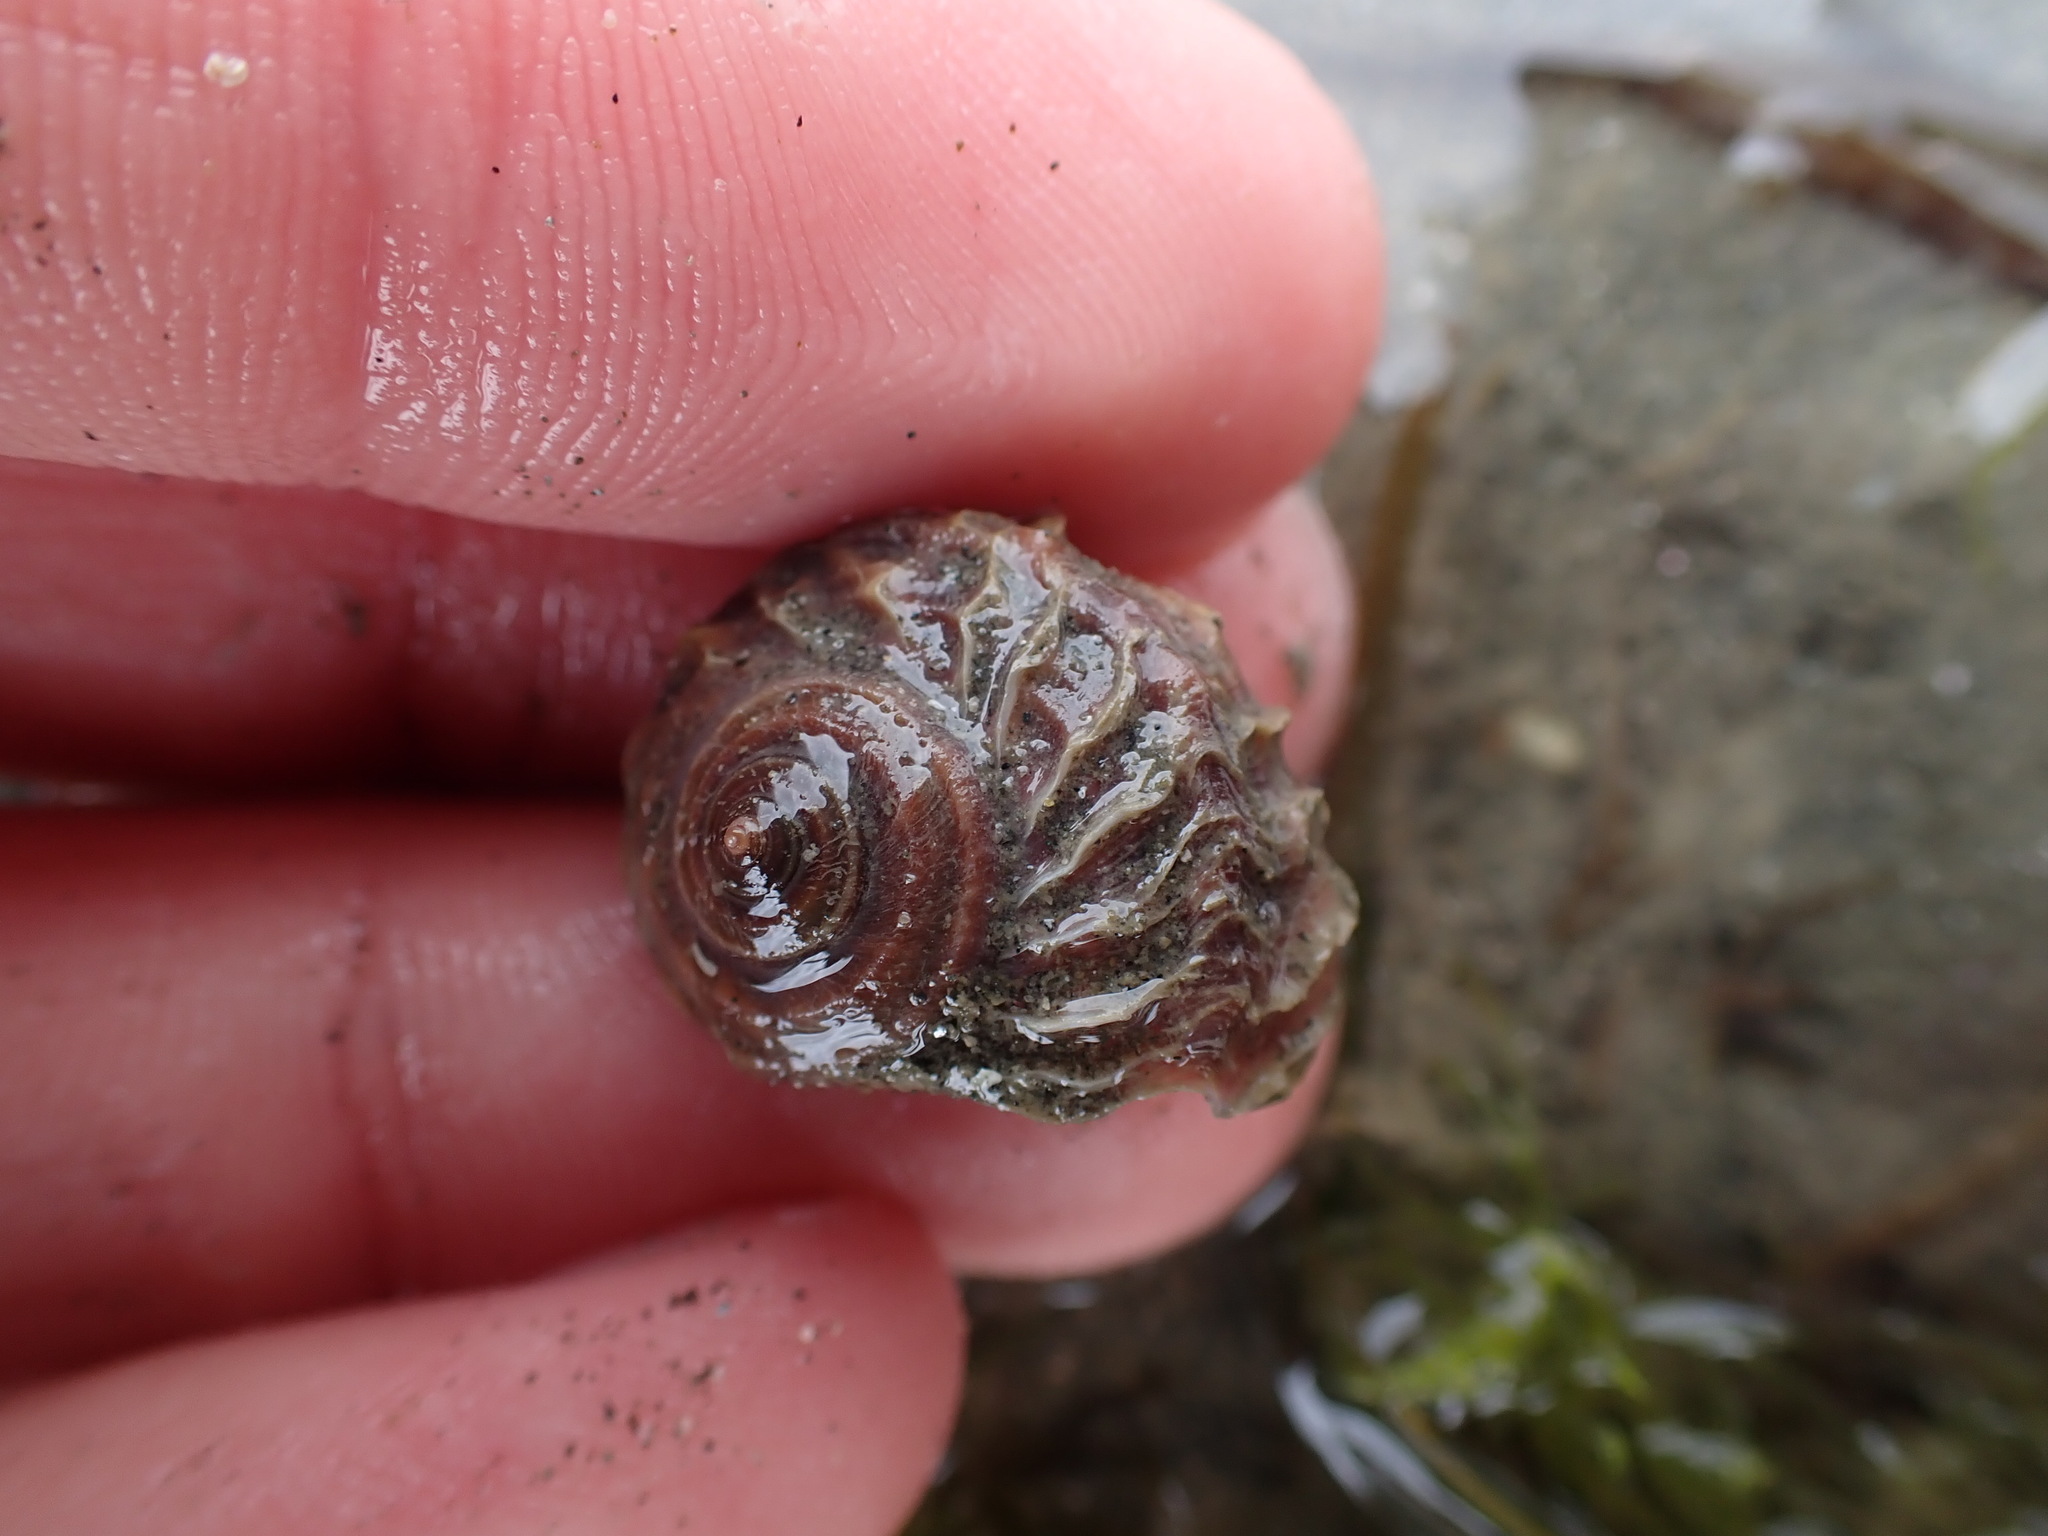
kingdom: Animalia
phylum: Mollusca
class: Gastropoda
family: Amphibolidae
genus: Amphibola
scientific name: Amphibola crenata
